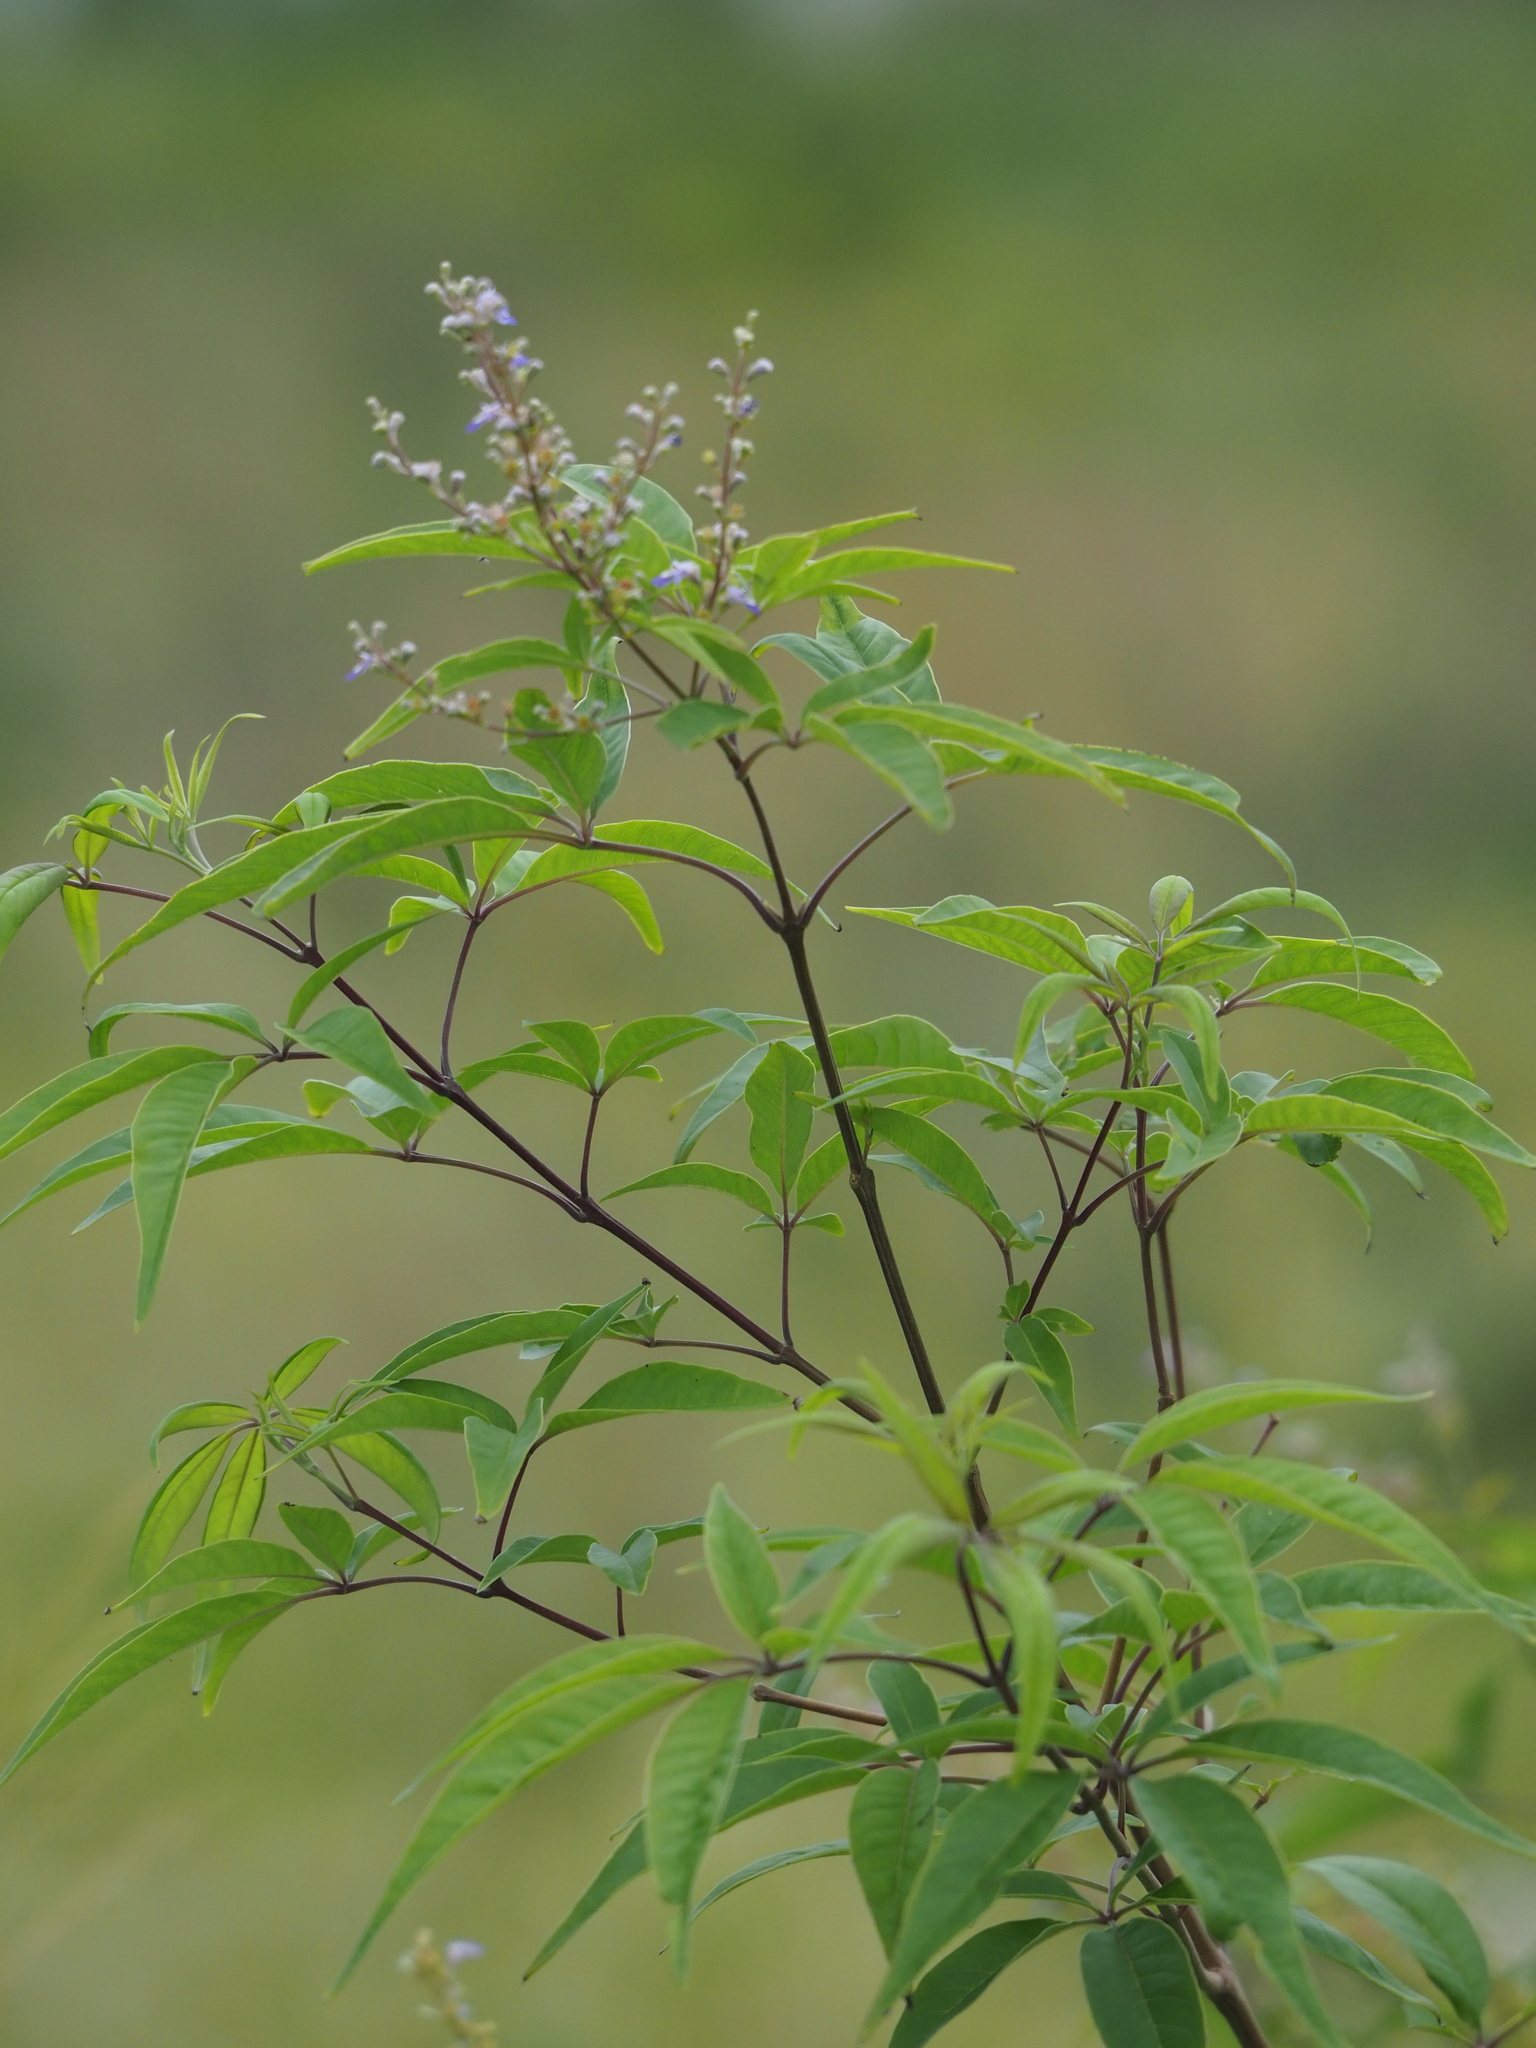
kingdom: Plantae
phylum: Tracheophyta
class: Magnoliopsida
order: Lamiales
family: Lamiaceae
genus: Vitex
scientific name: Vitex negundo
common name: Chinese chastetree
